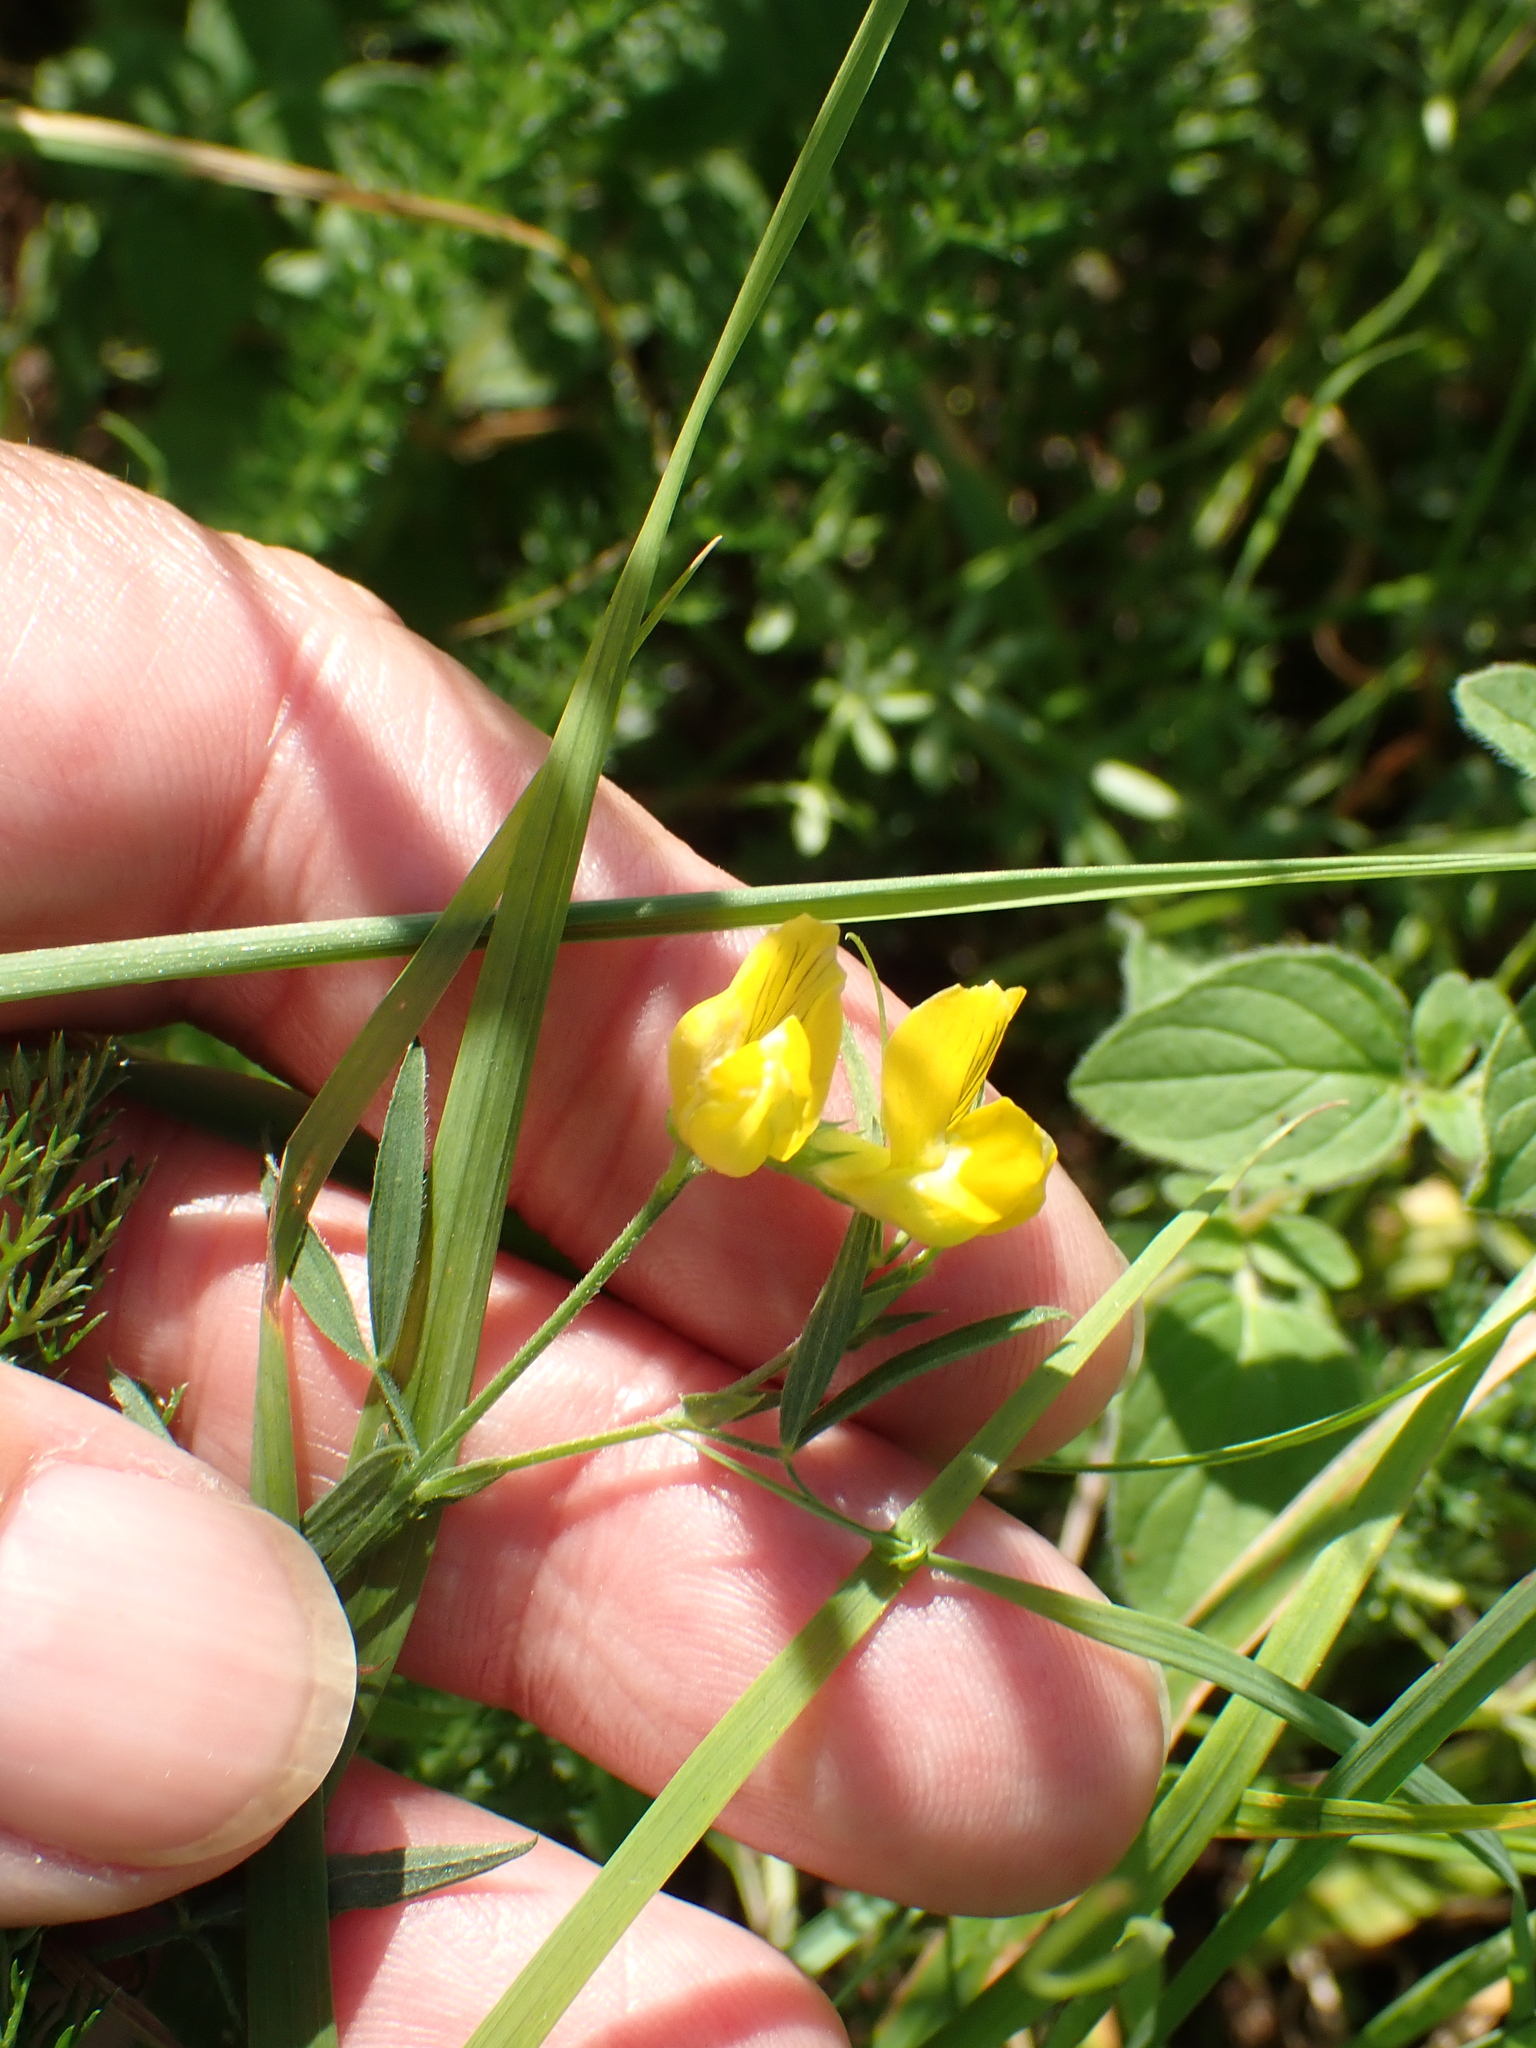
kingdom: Plantae
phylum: Tracheophyta
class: Magnoliopsida
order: Fabales
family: Fabaceae
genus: Lathyrus
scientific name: Lathyrus pratensis
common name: Meadow vetchling
